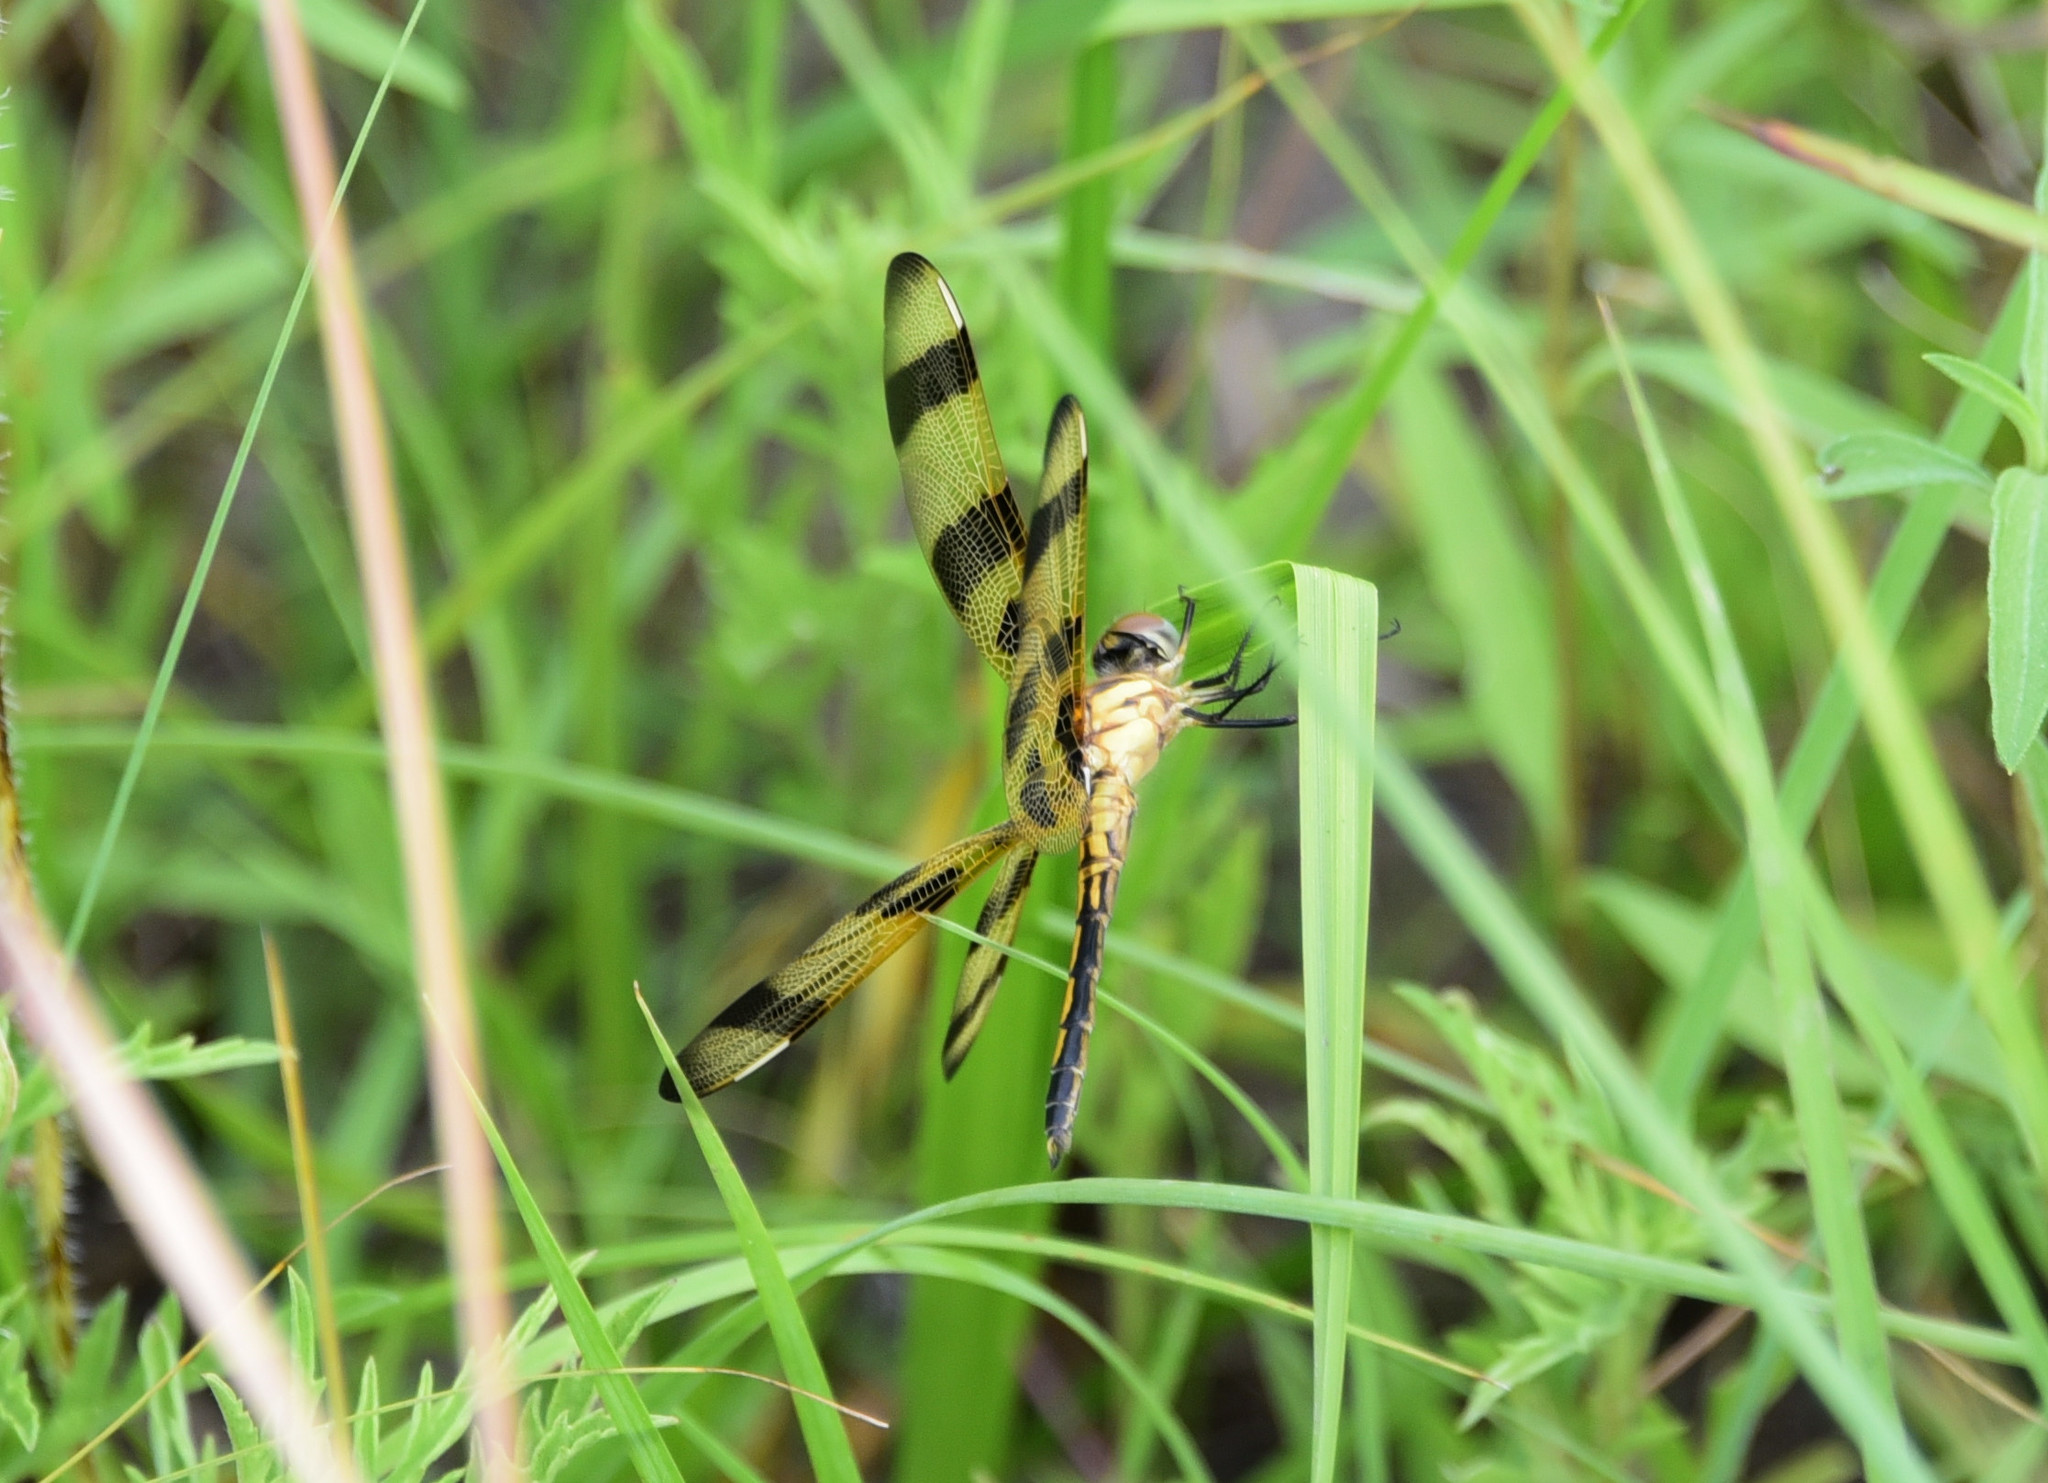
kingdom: Animalia
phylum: Arthropoda
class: Insecta
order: Odonata
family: Libellulidae
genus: Celithemis
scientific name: Celithemis eponina
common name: Halloween pennant
